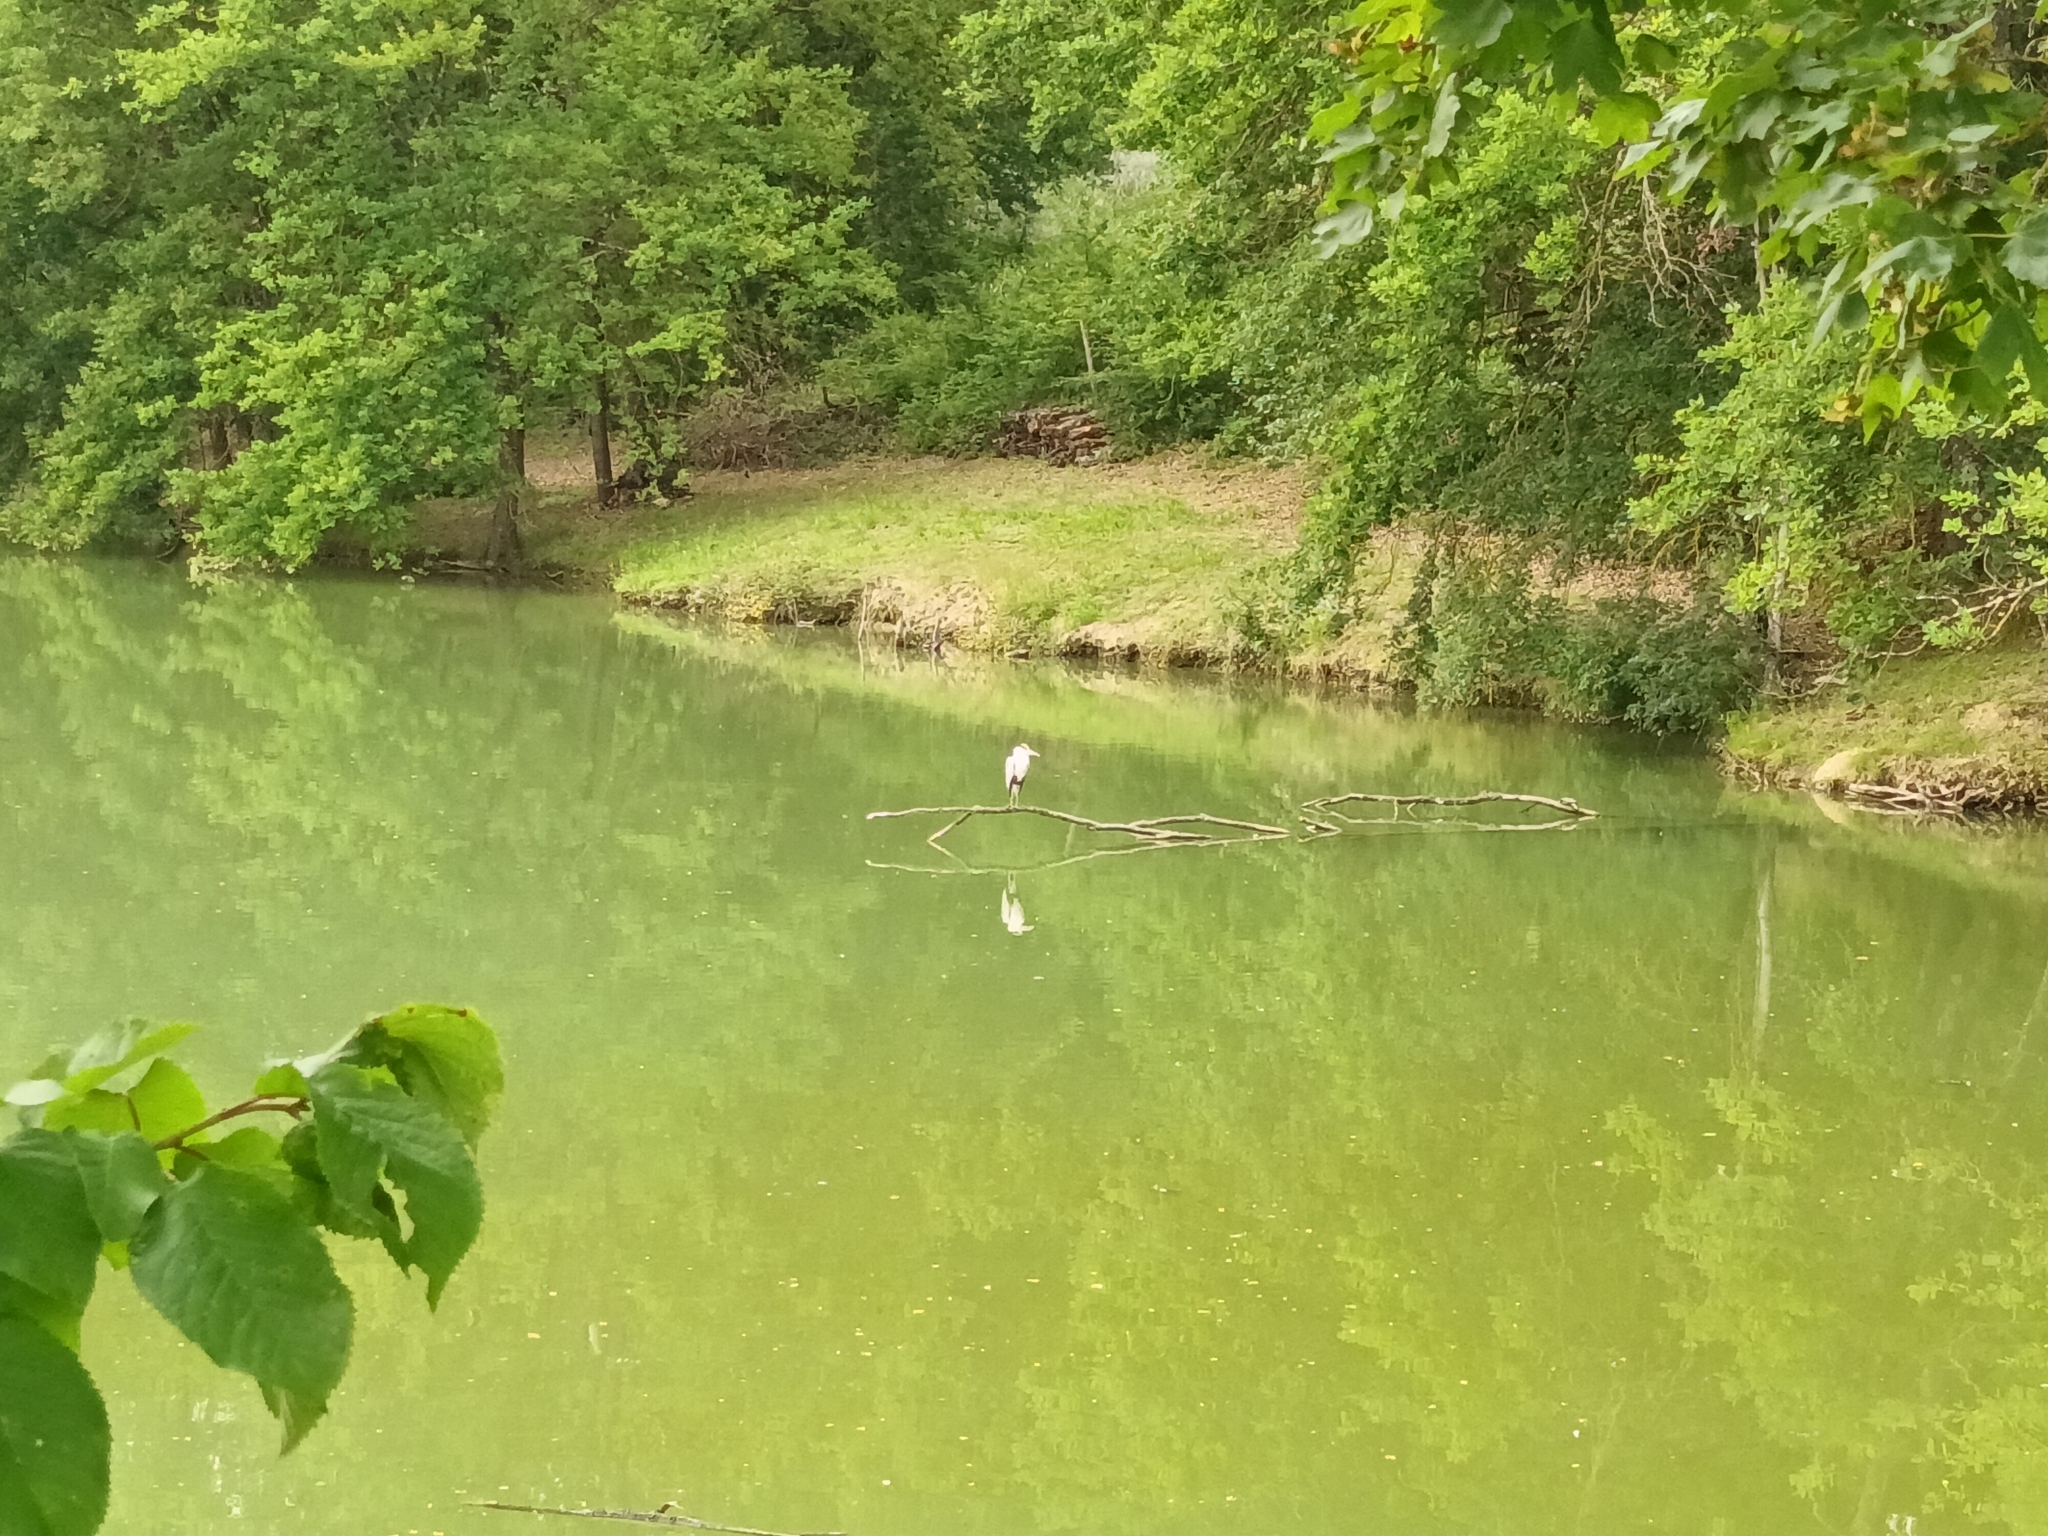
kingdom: Animalia
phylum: Chordata
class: Aves
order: Pelecaniformes
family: Ardeidae
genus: Ardea
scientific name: Ardea cinerea
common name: Grey heron
